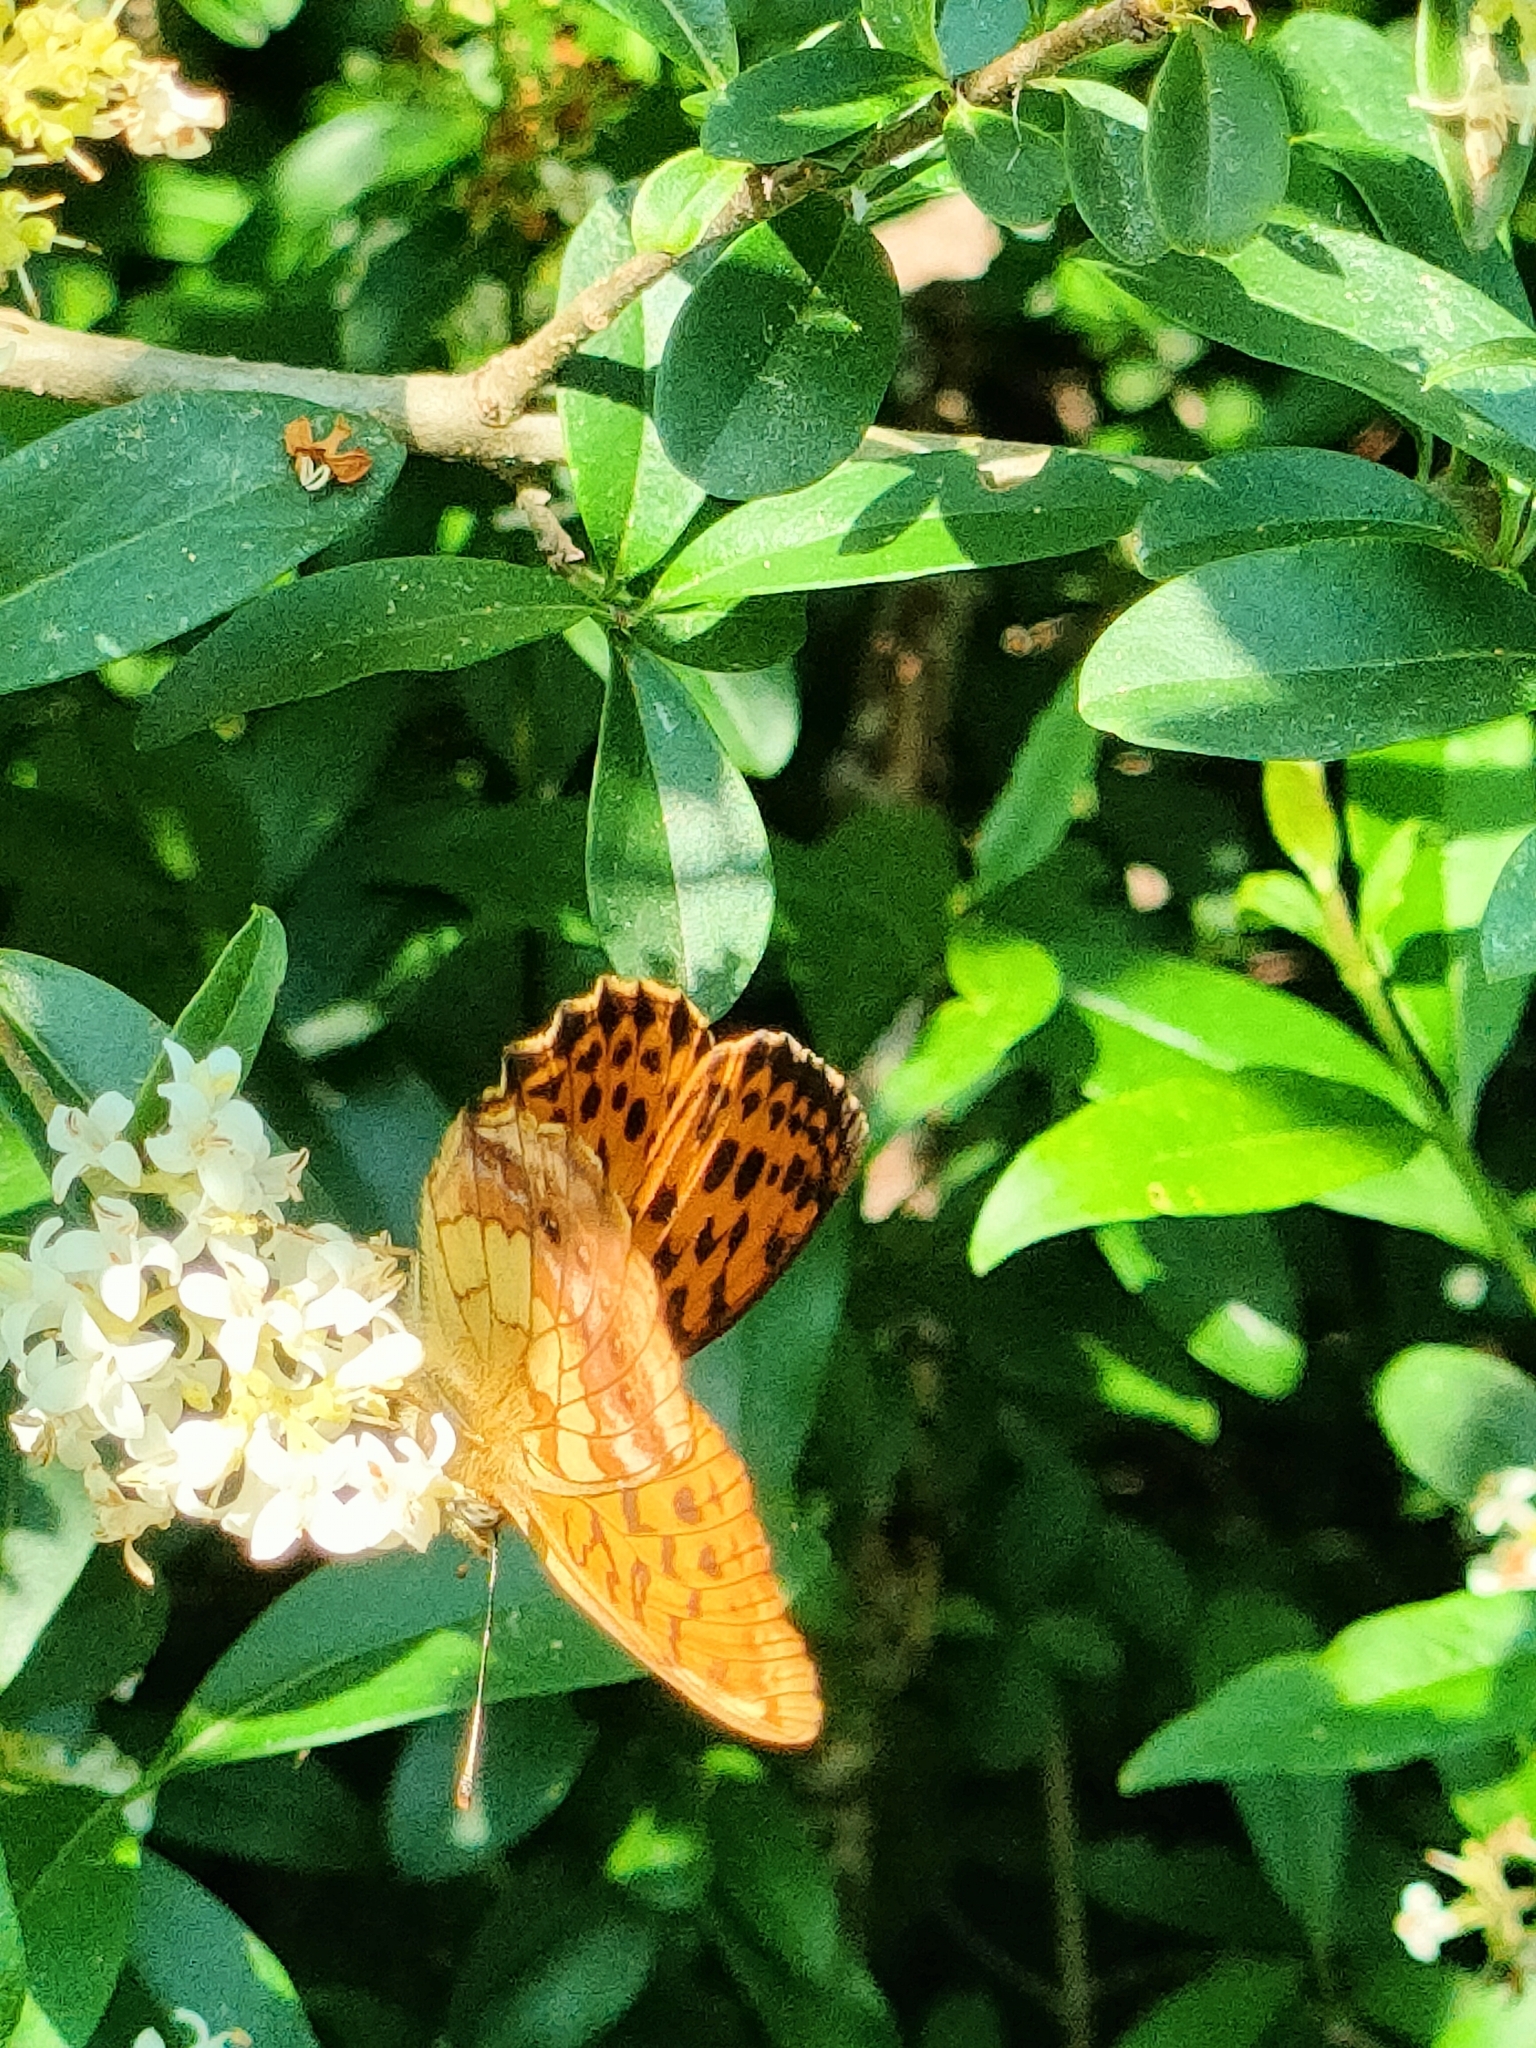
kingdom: Animalia
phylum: Arthropoda
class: Insecta
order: Lepidoptera
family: Nymphalidae
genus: Brenthis
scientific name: Brenthis daphne
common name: Marbled fritillary
